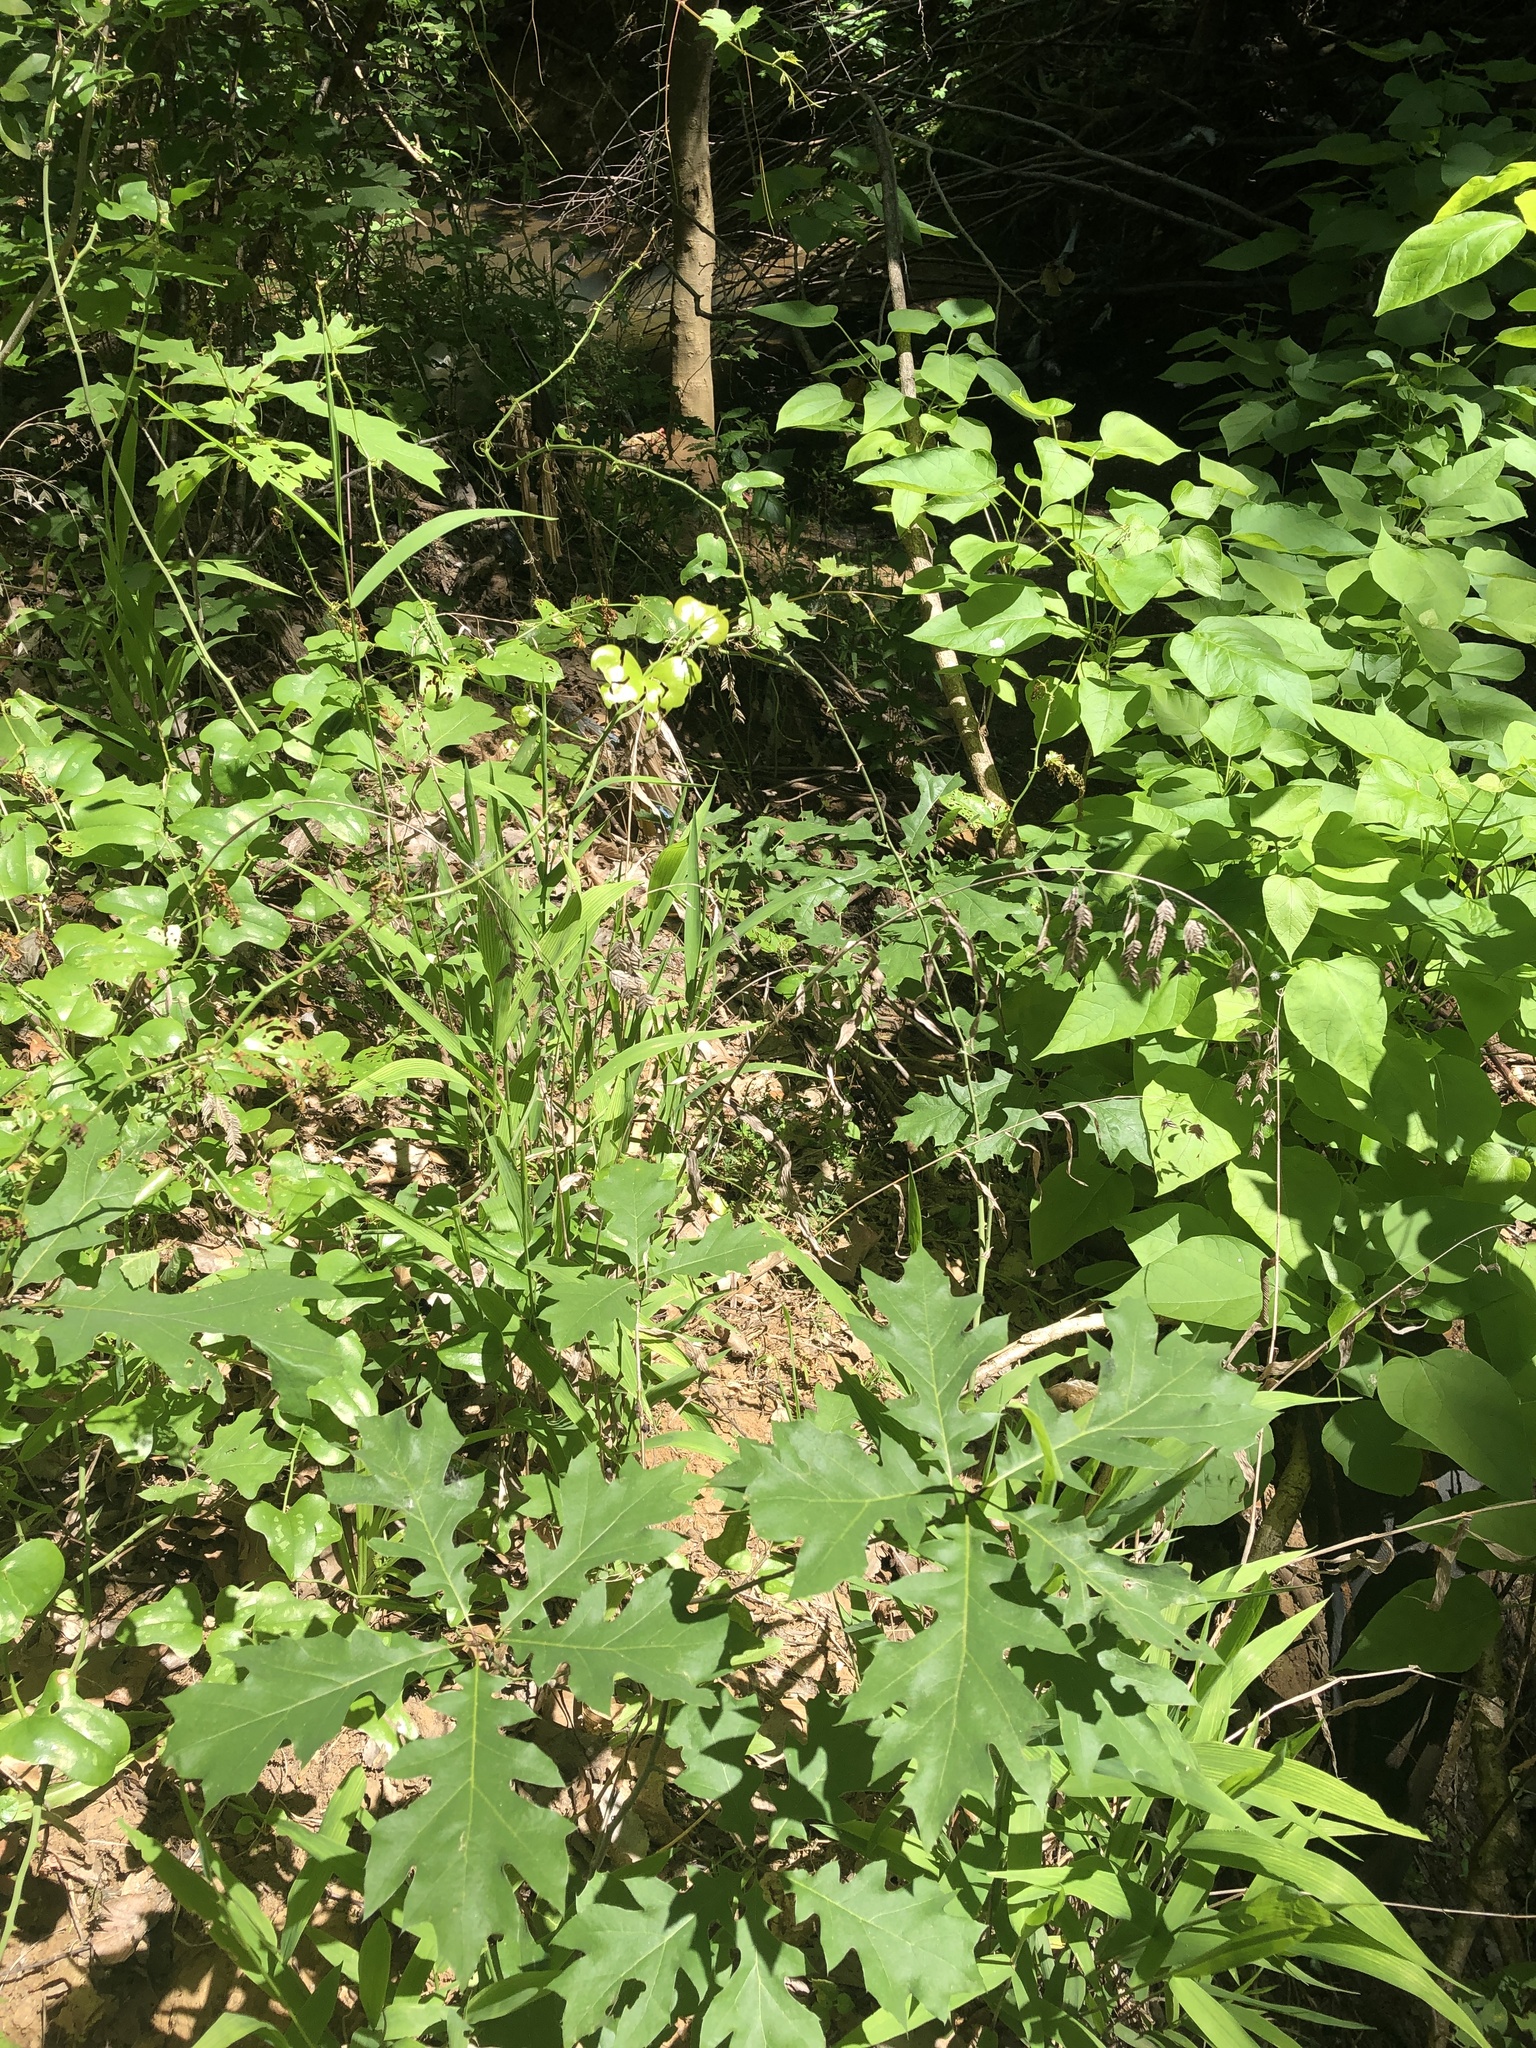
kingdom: Plantae
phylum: Tracheophyta
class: Liliopsida
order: Poales
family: Poaceae
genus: Chasmanthium
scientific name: Chasmanthium latifolium
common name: Broad-leaved chasmanthium
